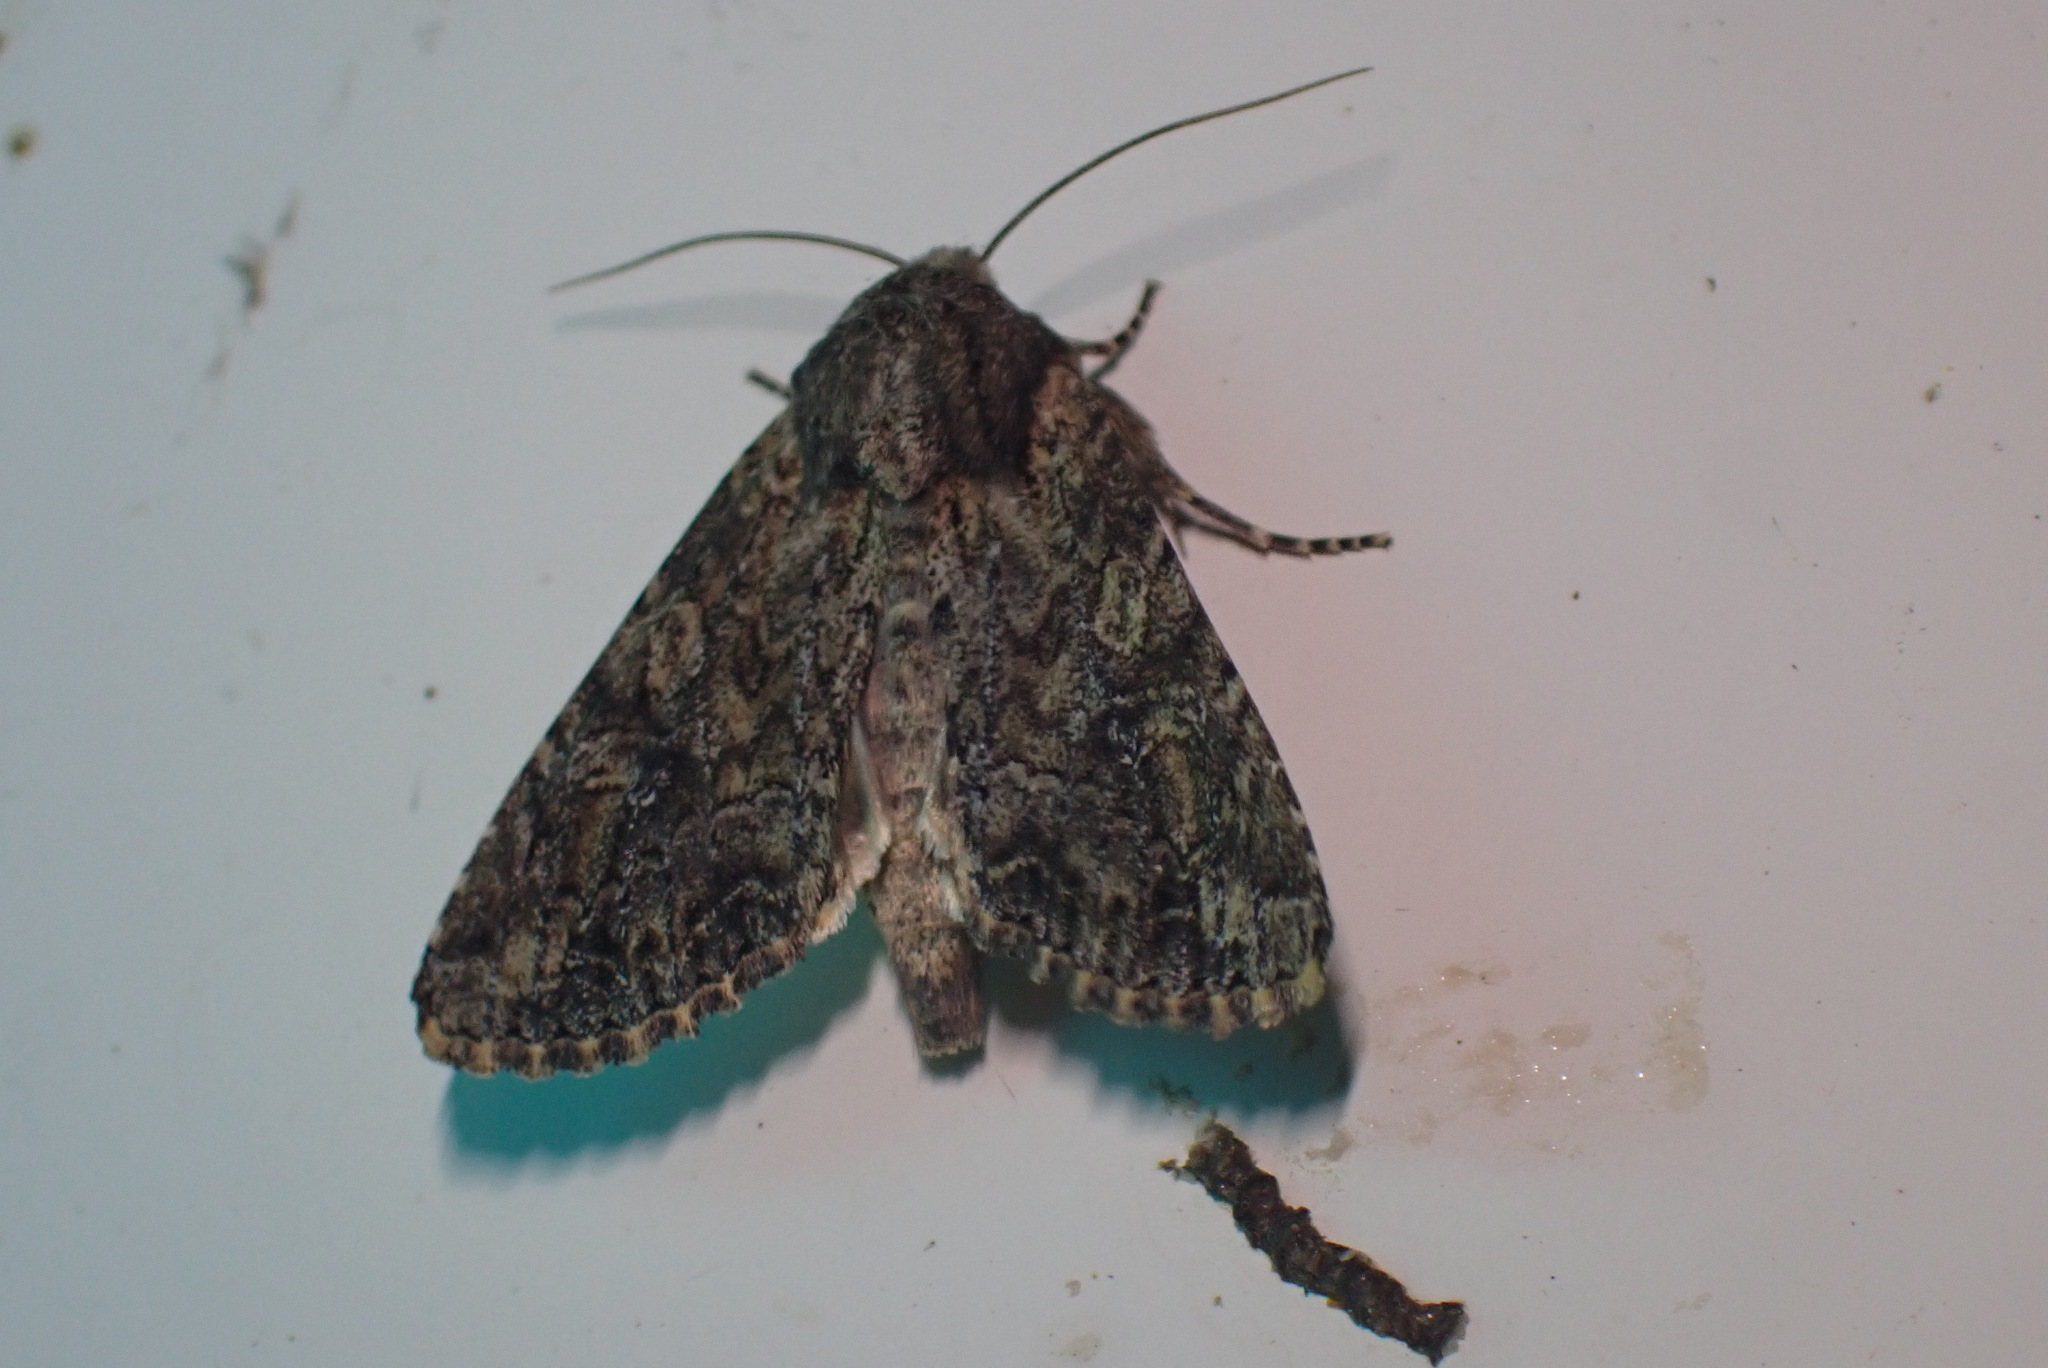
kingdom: Animalia
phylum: Arthropoda
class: Insecta
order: Lepidoptera
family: Noctuidae
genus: Apamea
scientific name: Apamea anceps
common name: Large nutmeg
